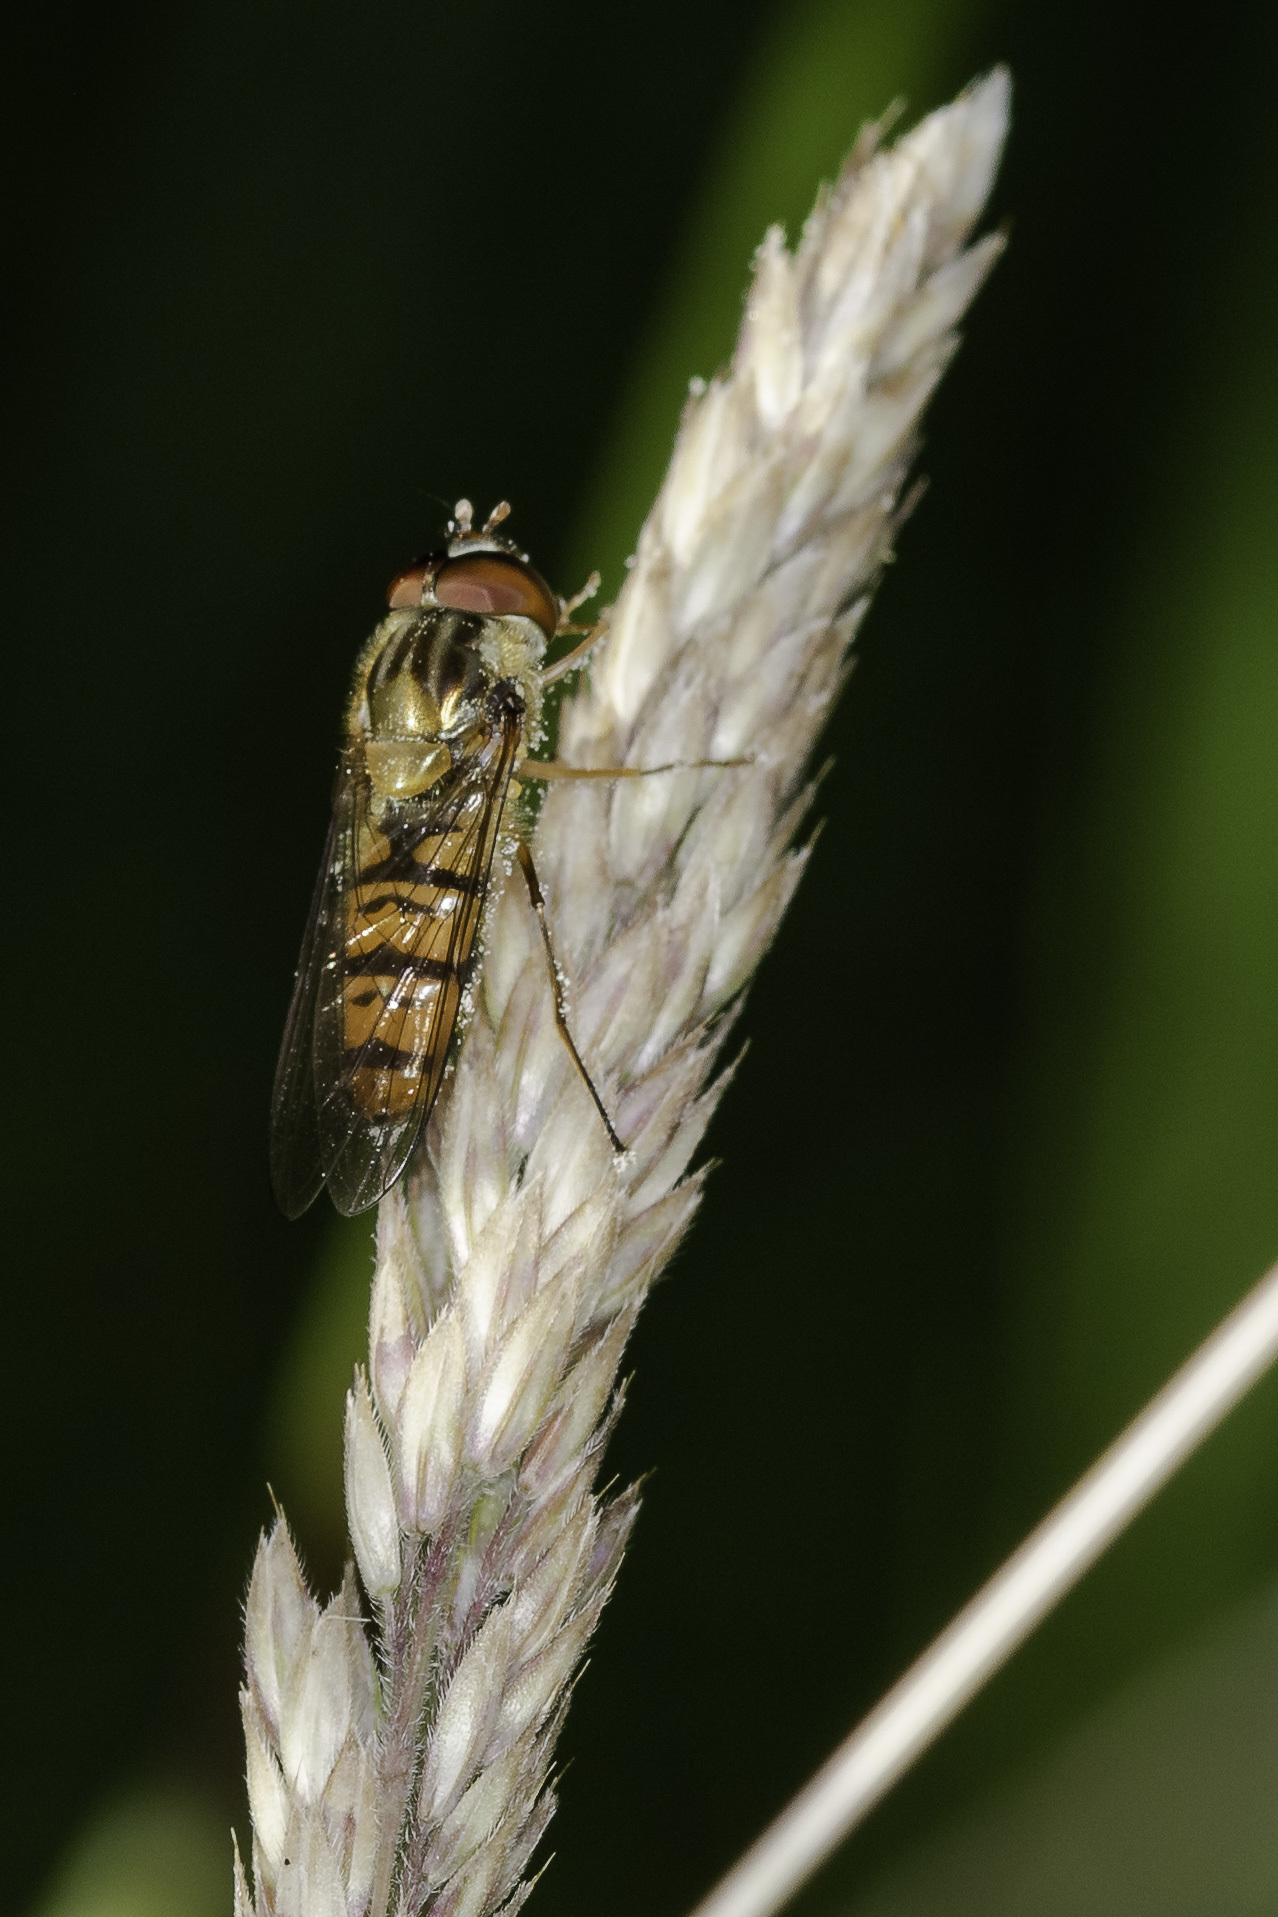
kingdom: Animalia
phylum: Arthropoda
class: Insecta
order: Diptera
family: Syrphidae
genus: Episyrphus
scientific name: Episyrphus balteatus
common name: Marmalade hoverfly
